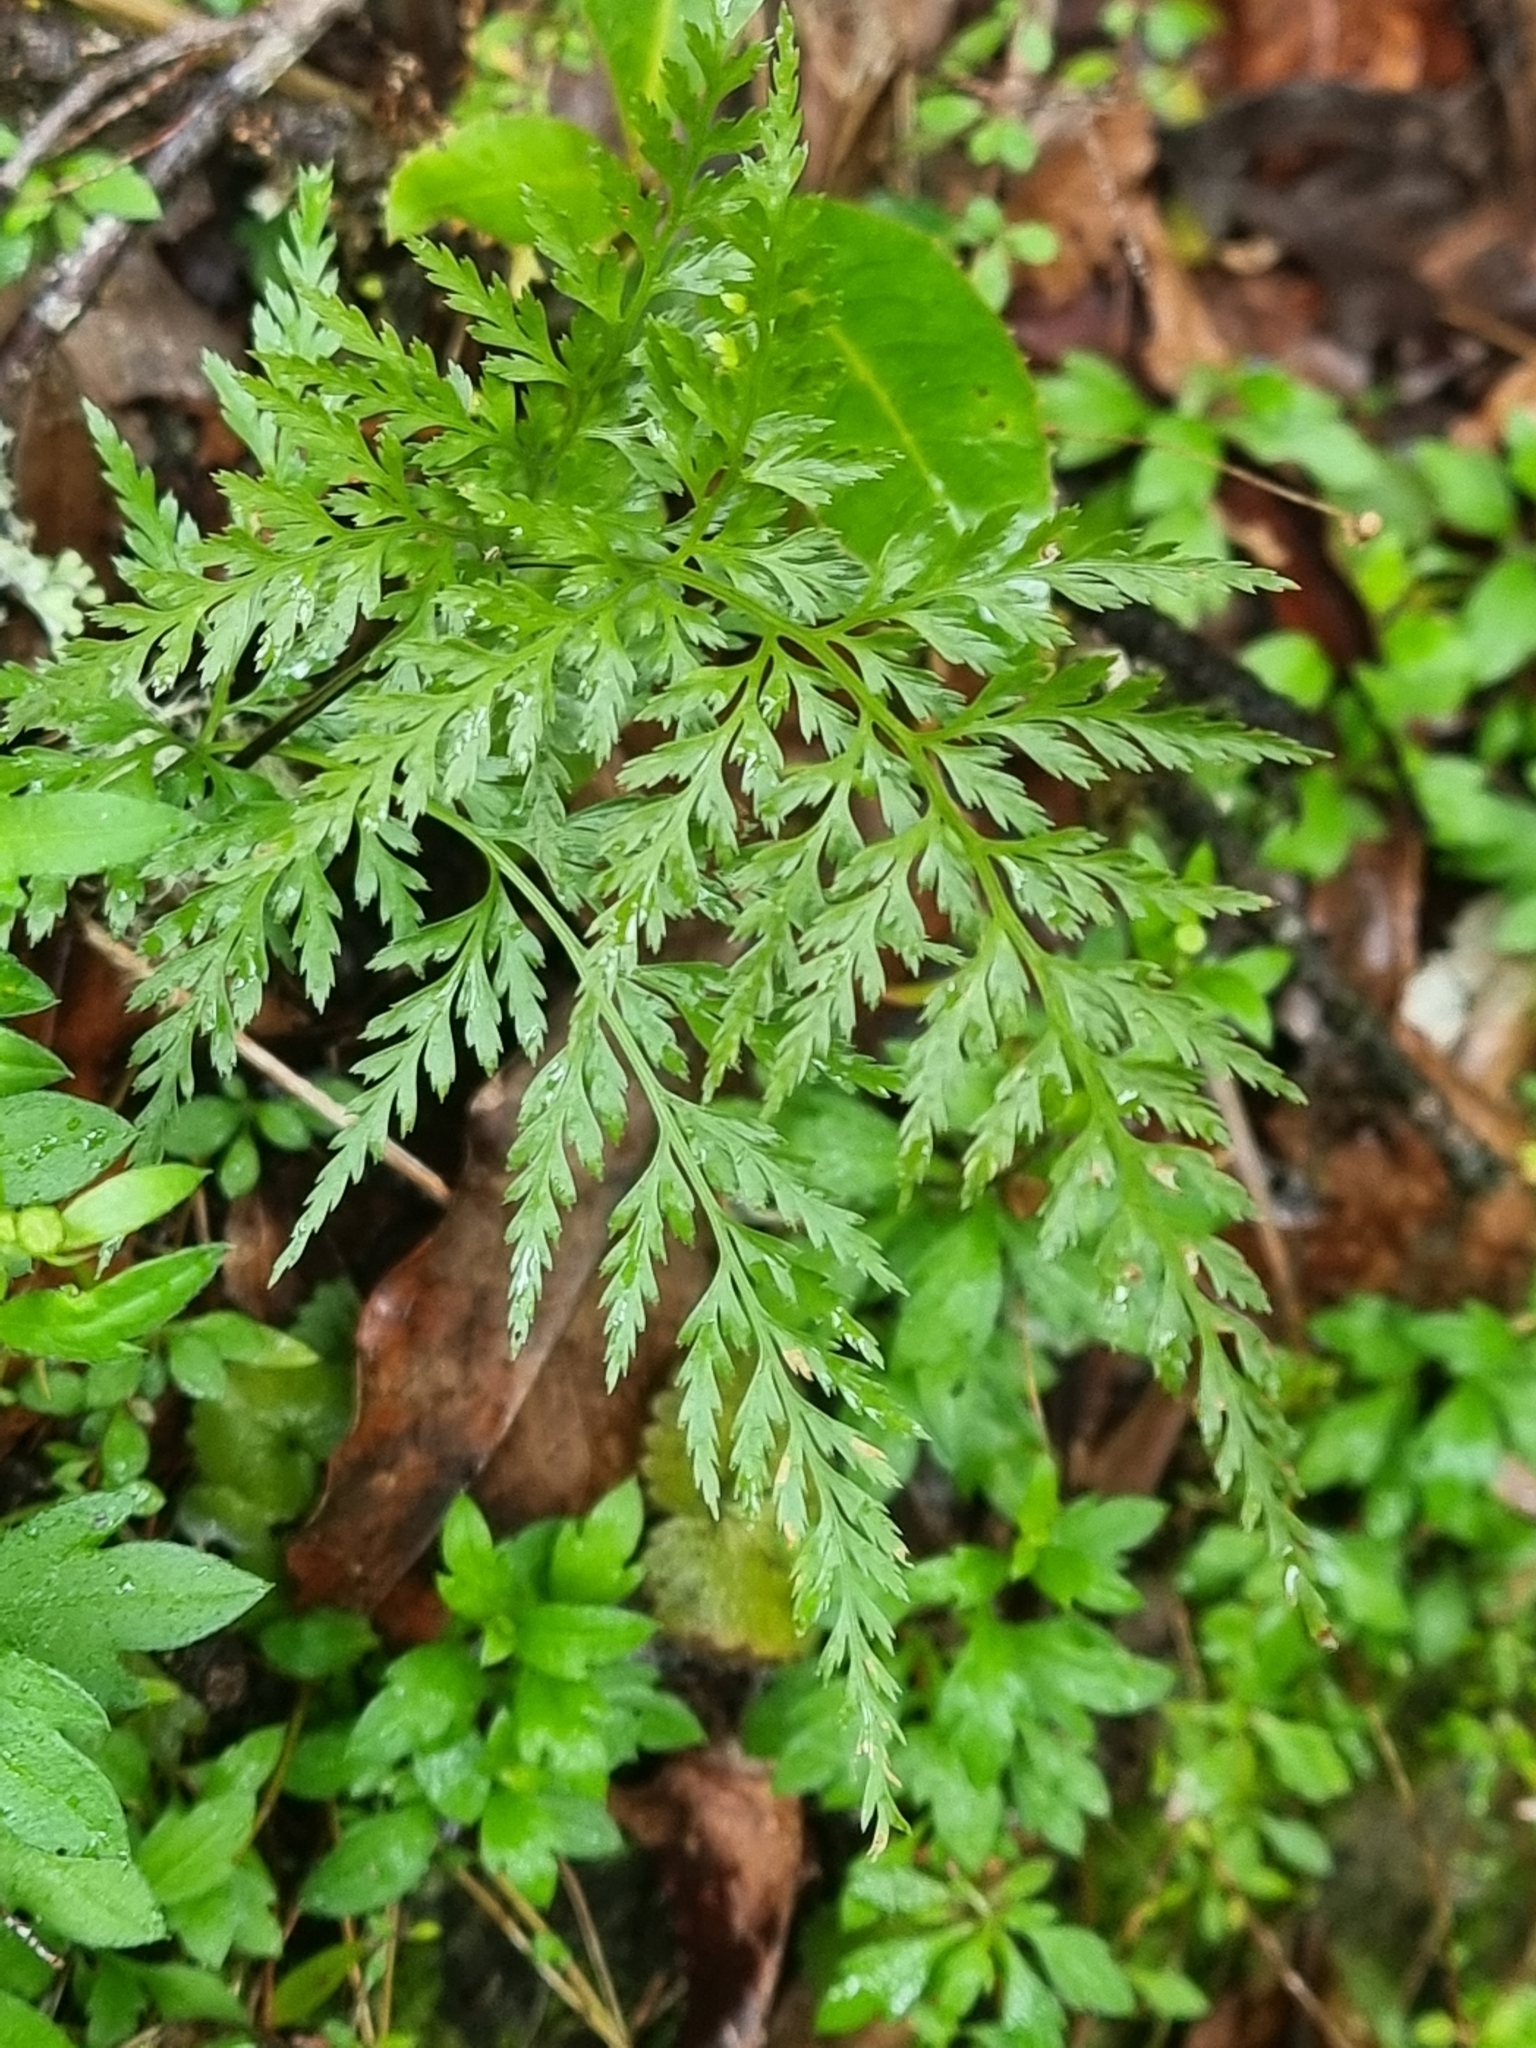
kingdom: Plantae
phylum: Tracheophyta
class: Polypodiopsida
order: Polypodiales
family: Aspleniaceae
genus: Asplenium
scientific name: Asplenium onopteris
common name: Irish spleenwort
